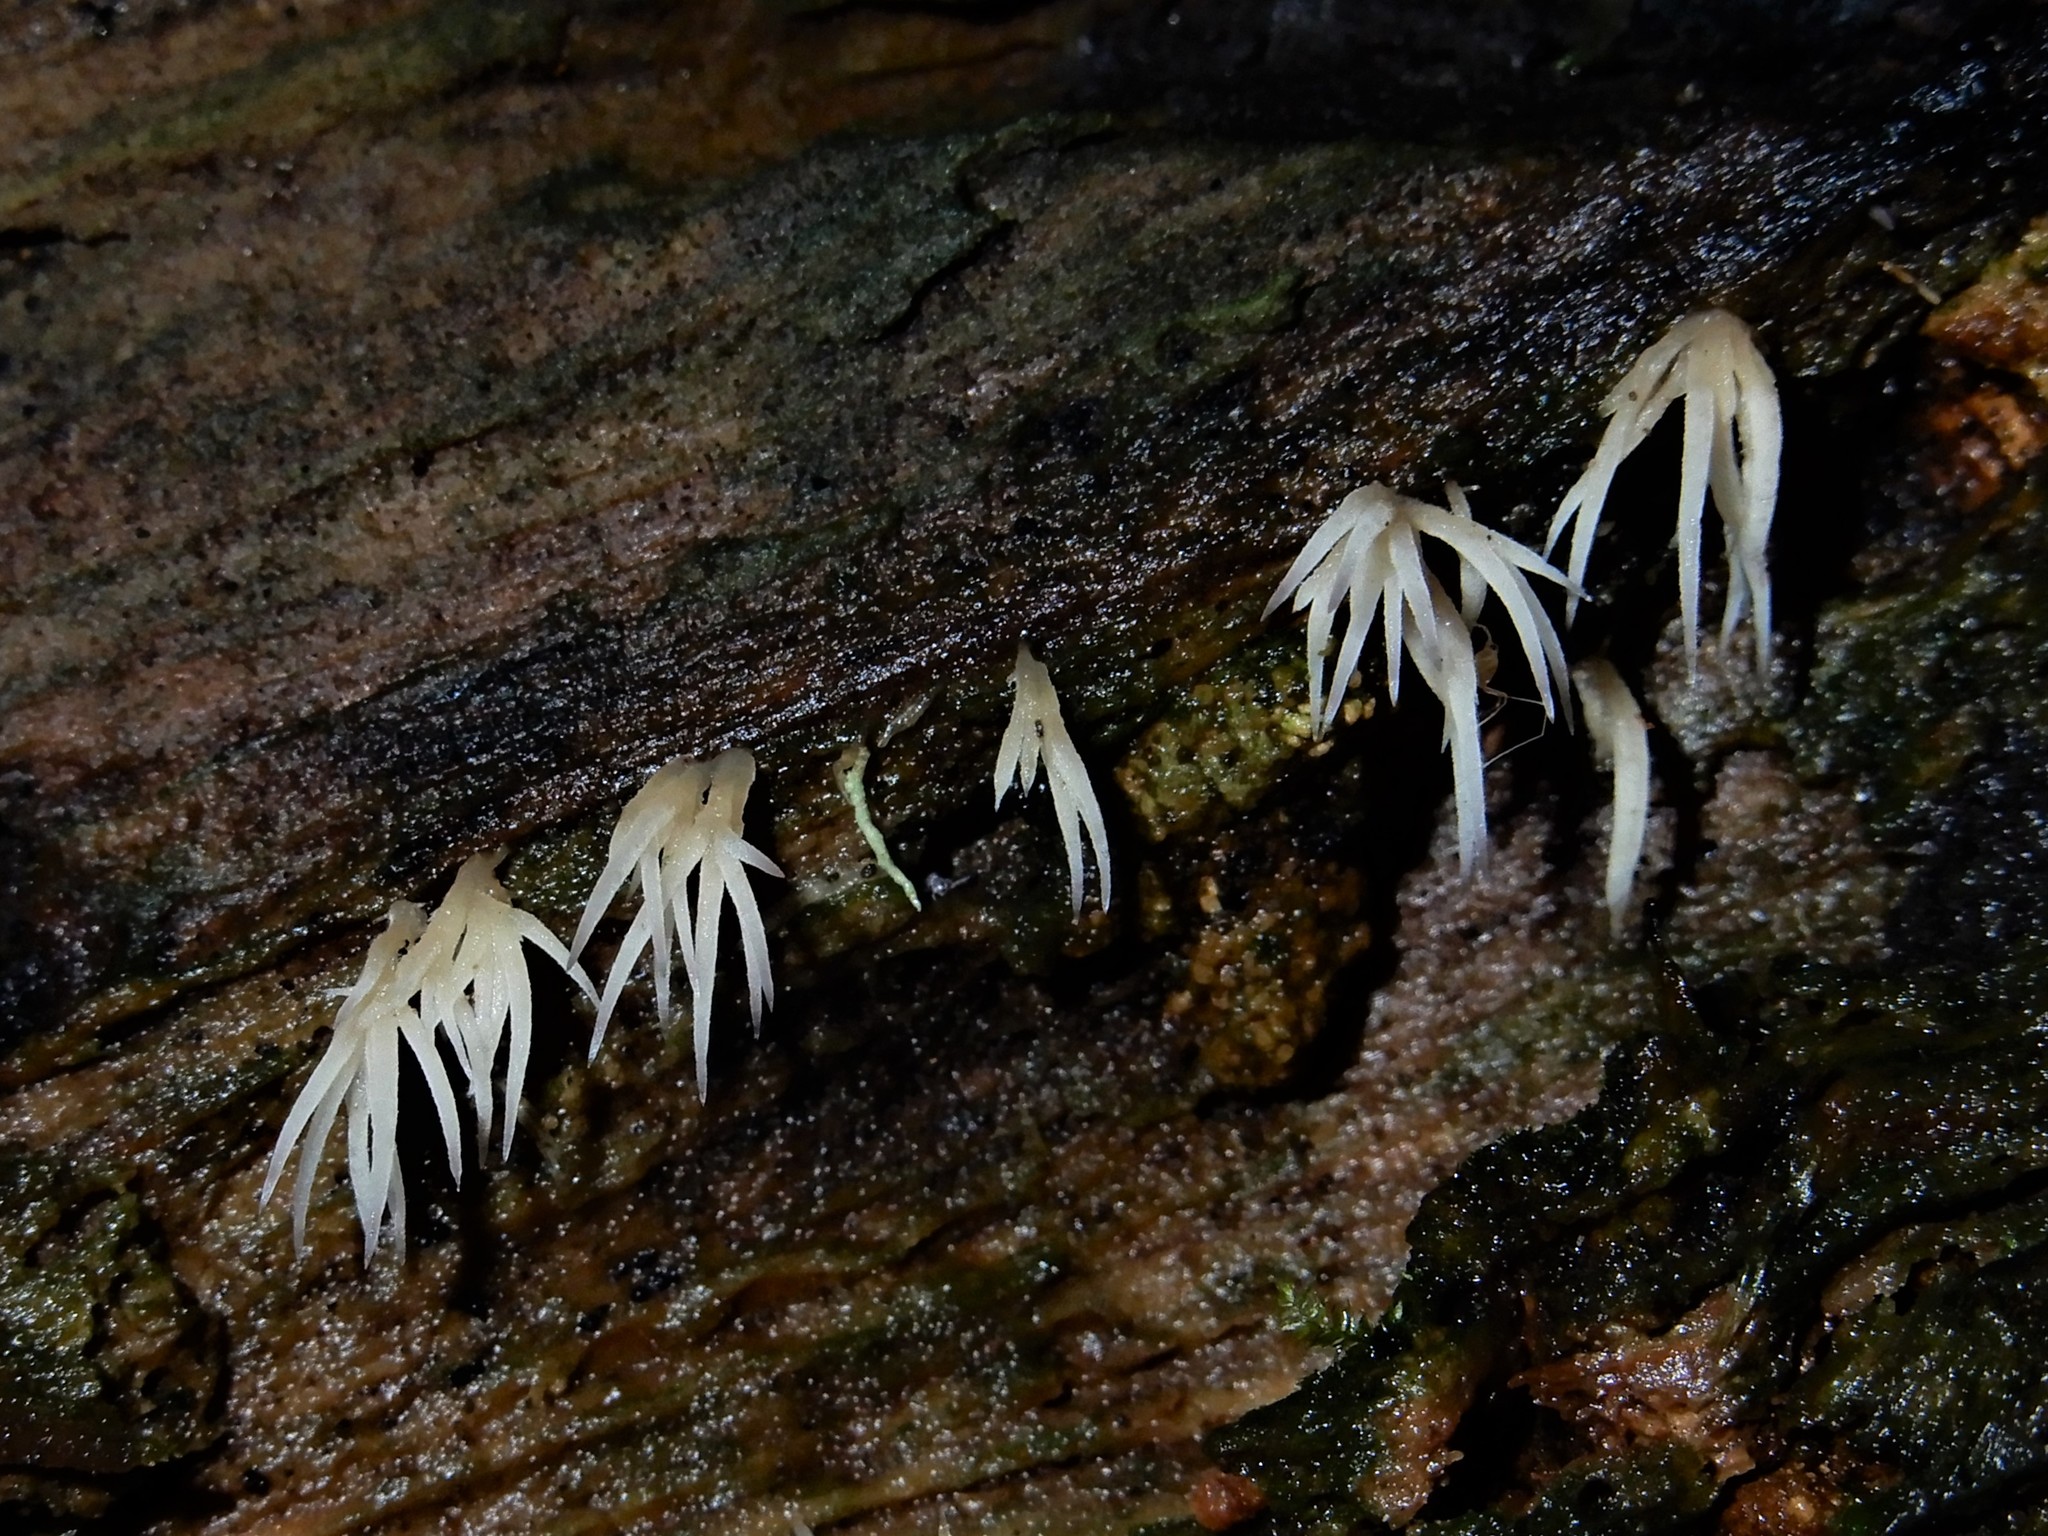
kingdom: Fungi
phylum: Basidiomycota
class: Agaricomycetes
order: Agaricales
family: Pterulaceae
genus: Pterulicium
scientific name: Pterulicium fasciculare
